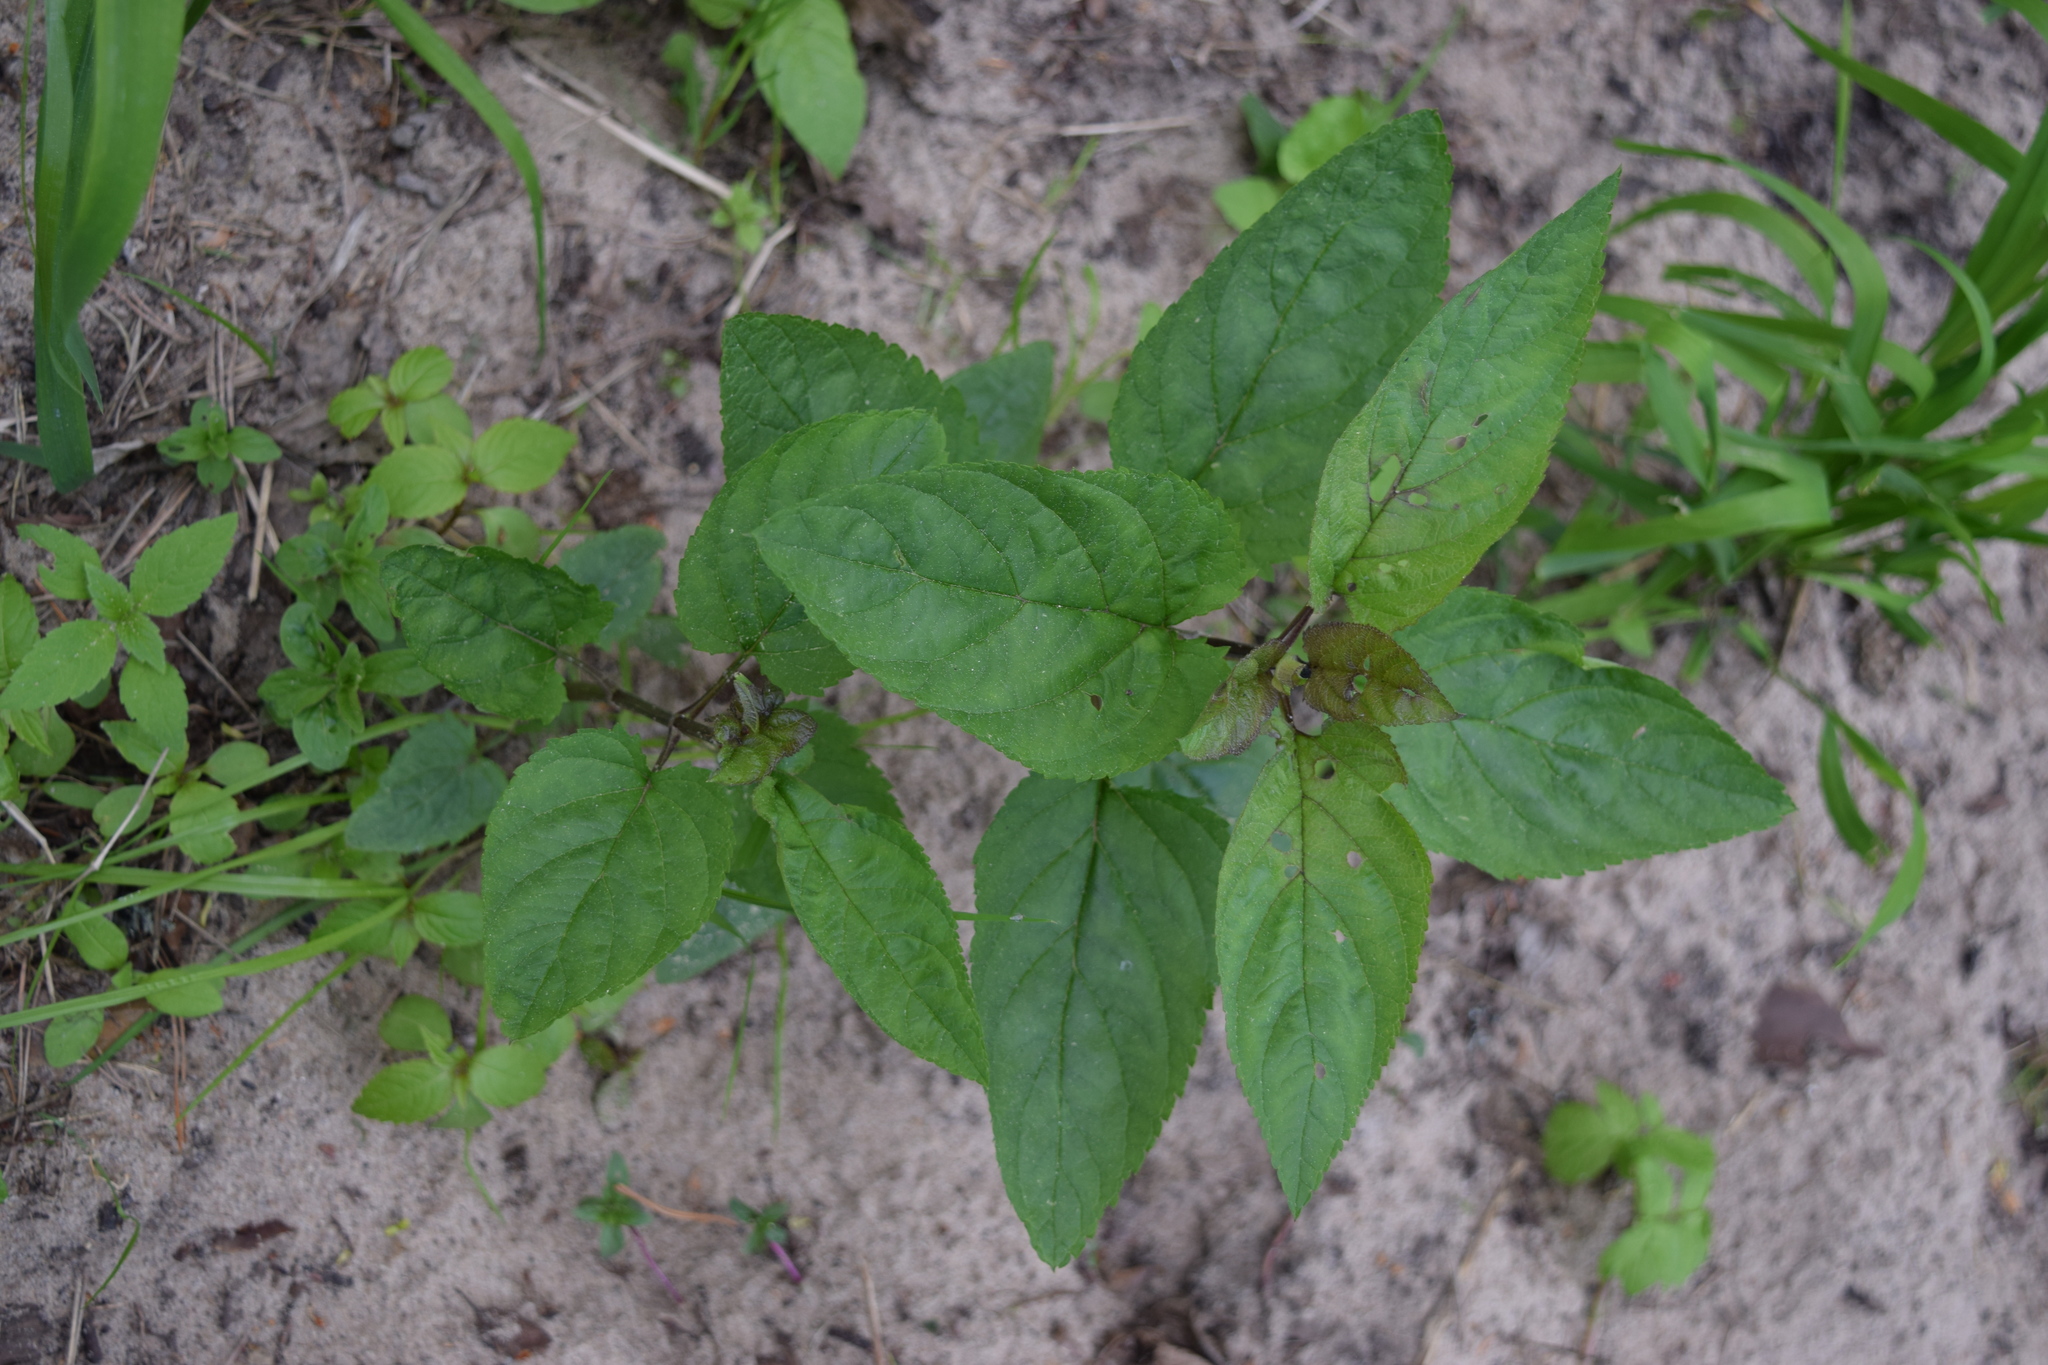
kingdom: Plantae
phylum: Tracheophyta
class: Magnoliopsida
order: Lamiales
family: Scrophulariaceae
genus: Scrophularia
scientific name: Scrophularia nodosa
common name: Common figwort
